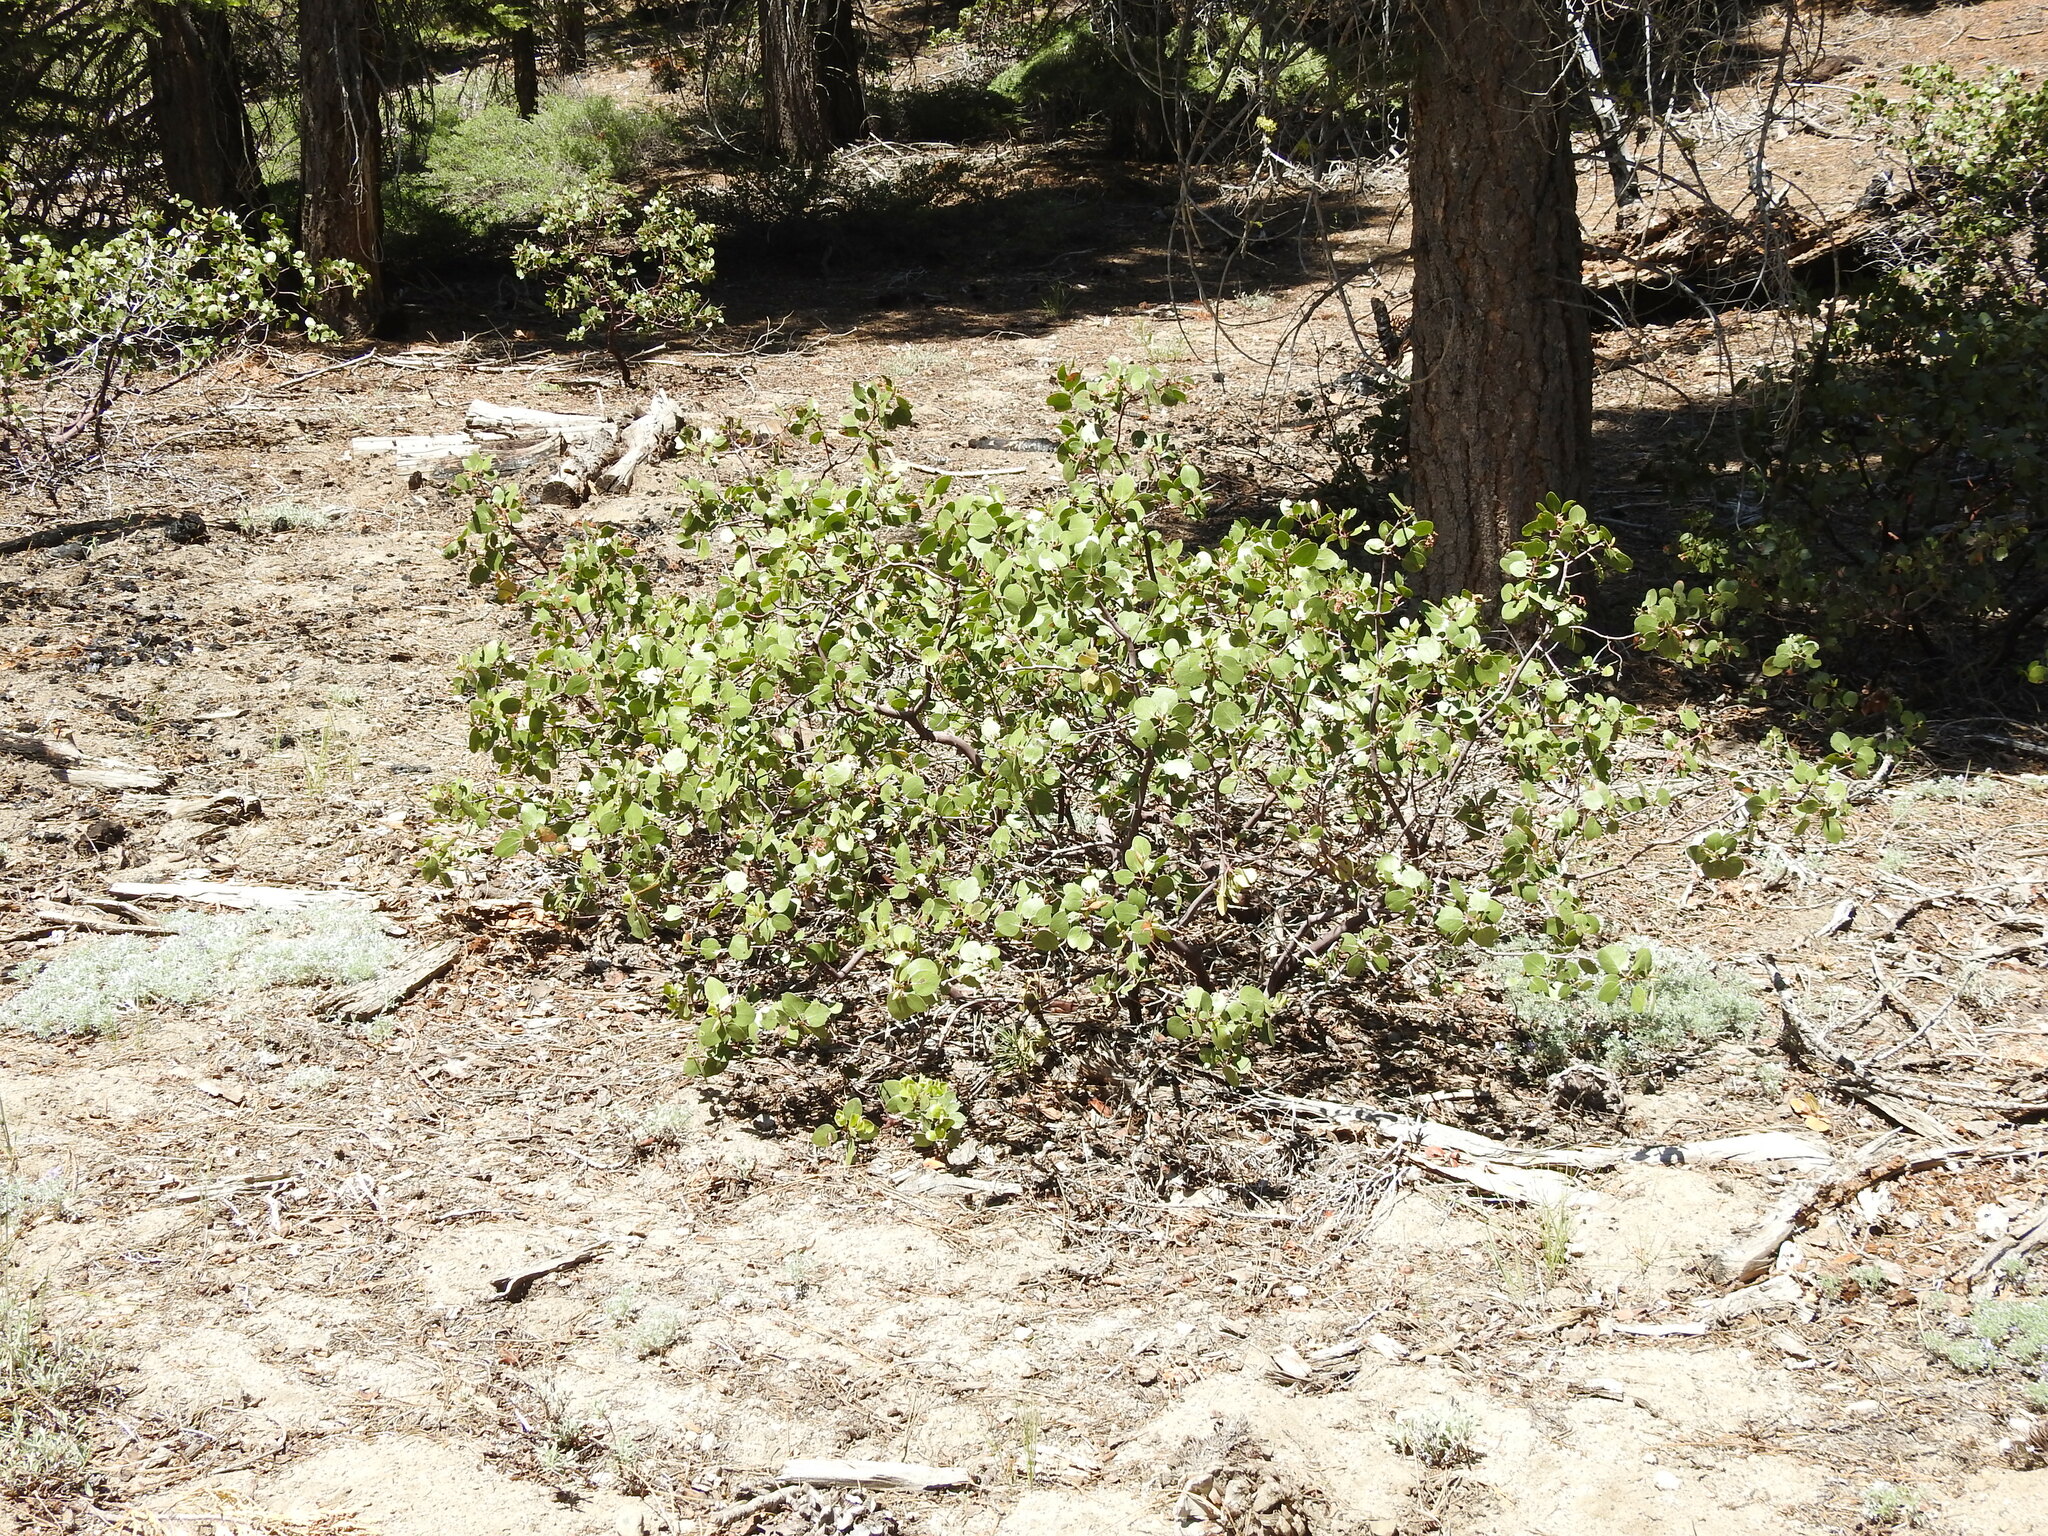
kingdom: Plantae
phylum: Tracheophyta
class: Magnoliopsida
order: Ericales
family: Ericaceae
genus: Arctostaphylos
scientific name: Arctostaphylos patula
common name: Green-leaf manzanita
